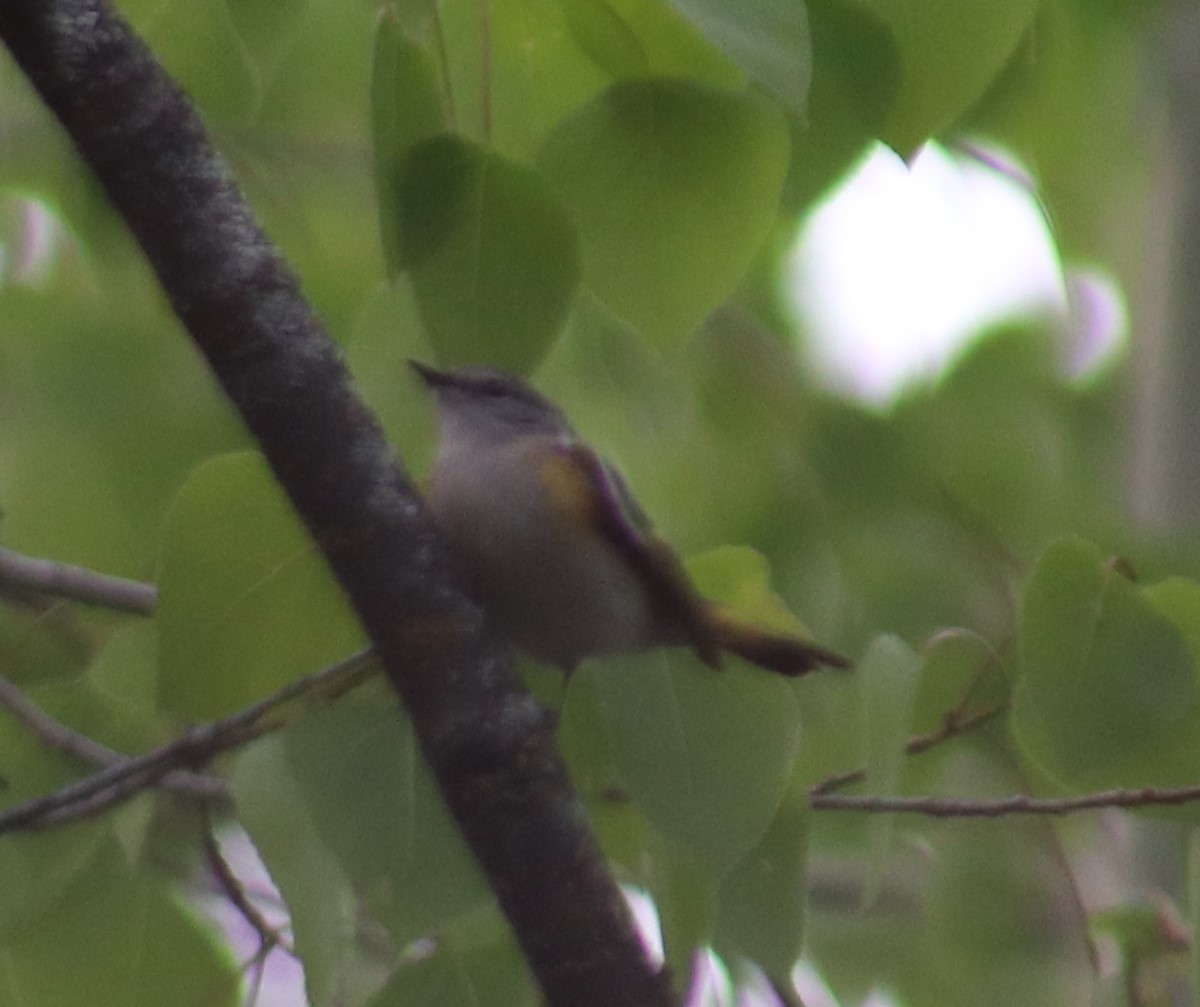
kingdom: Animalia
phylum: Chordata
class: Aves
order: Passeriformes
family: Parulidae
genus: Setophaga
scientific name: Setophaga ruticilla
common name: American redstart
